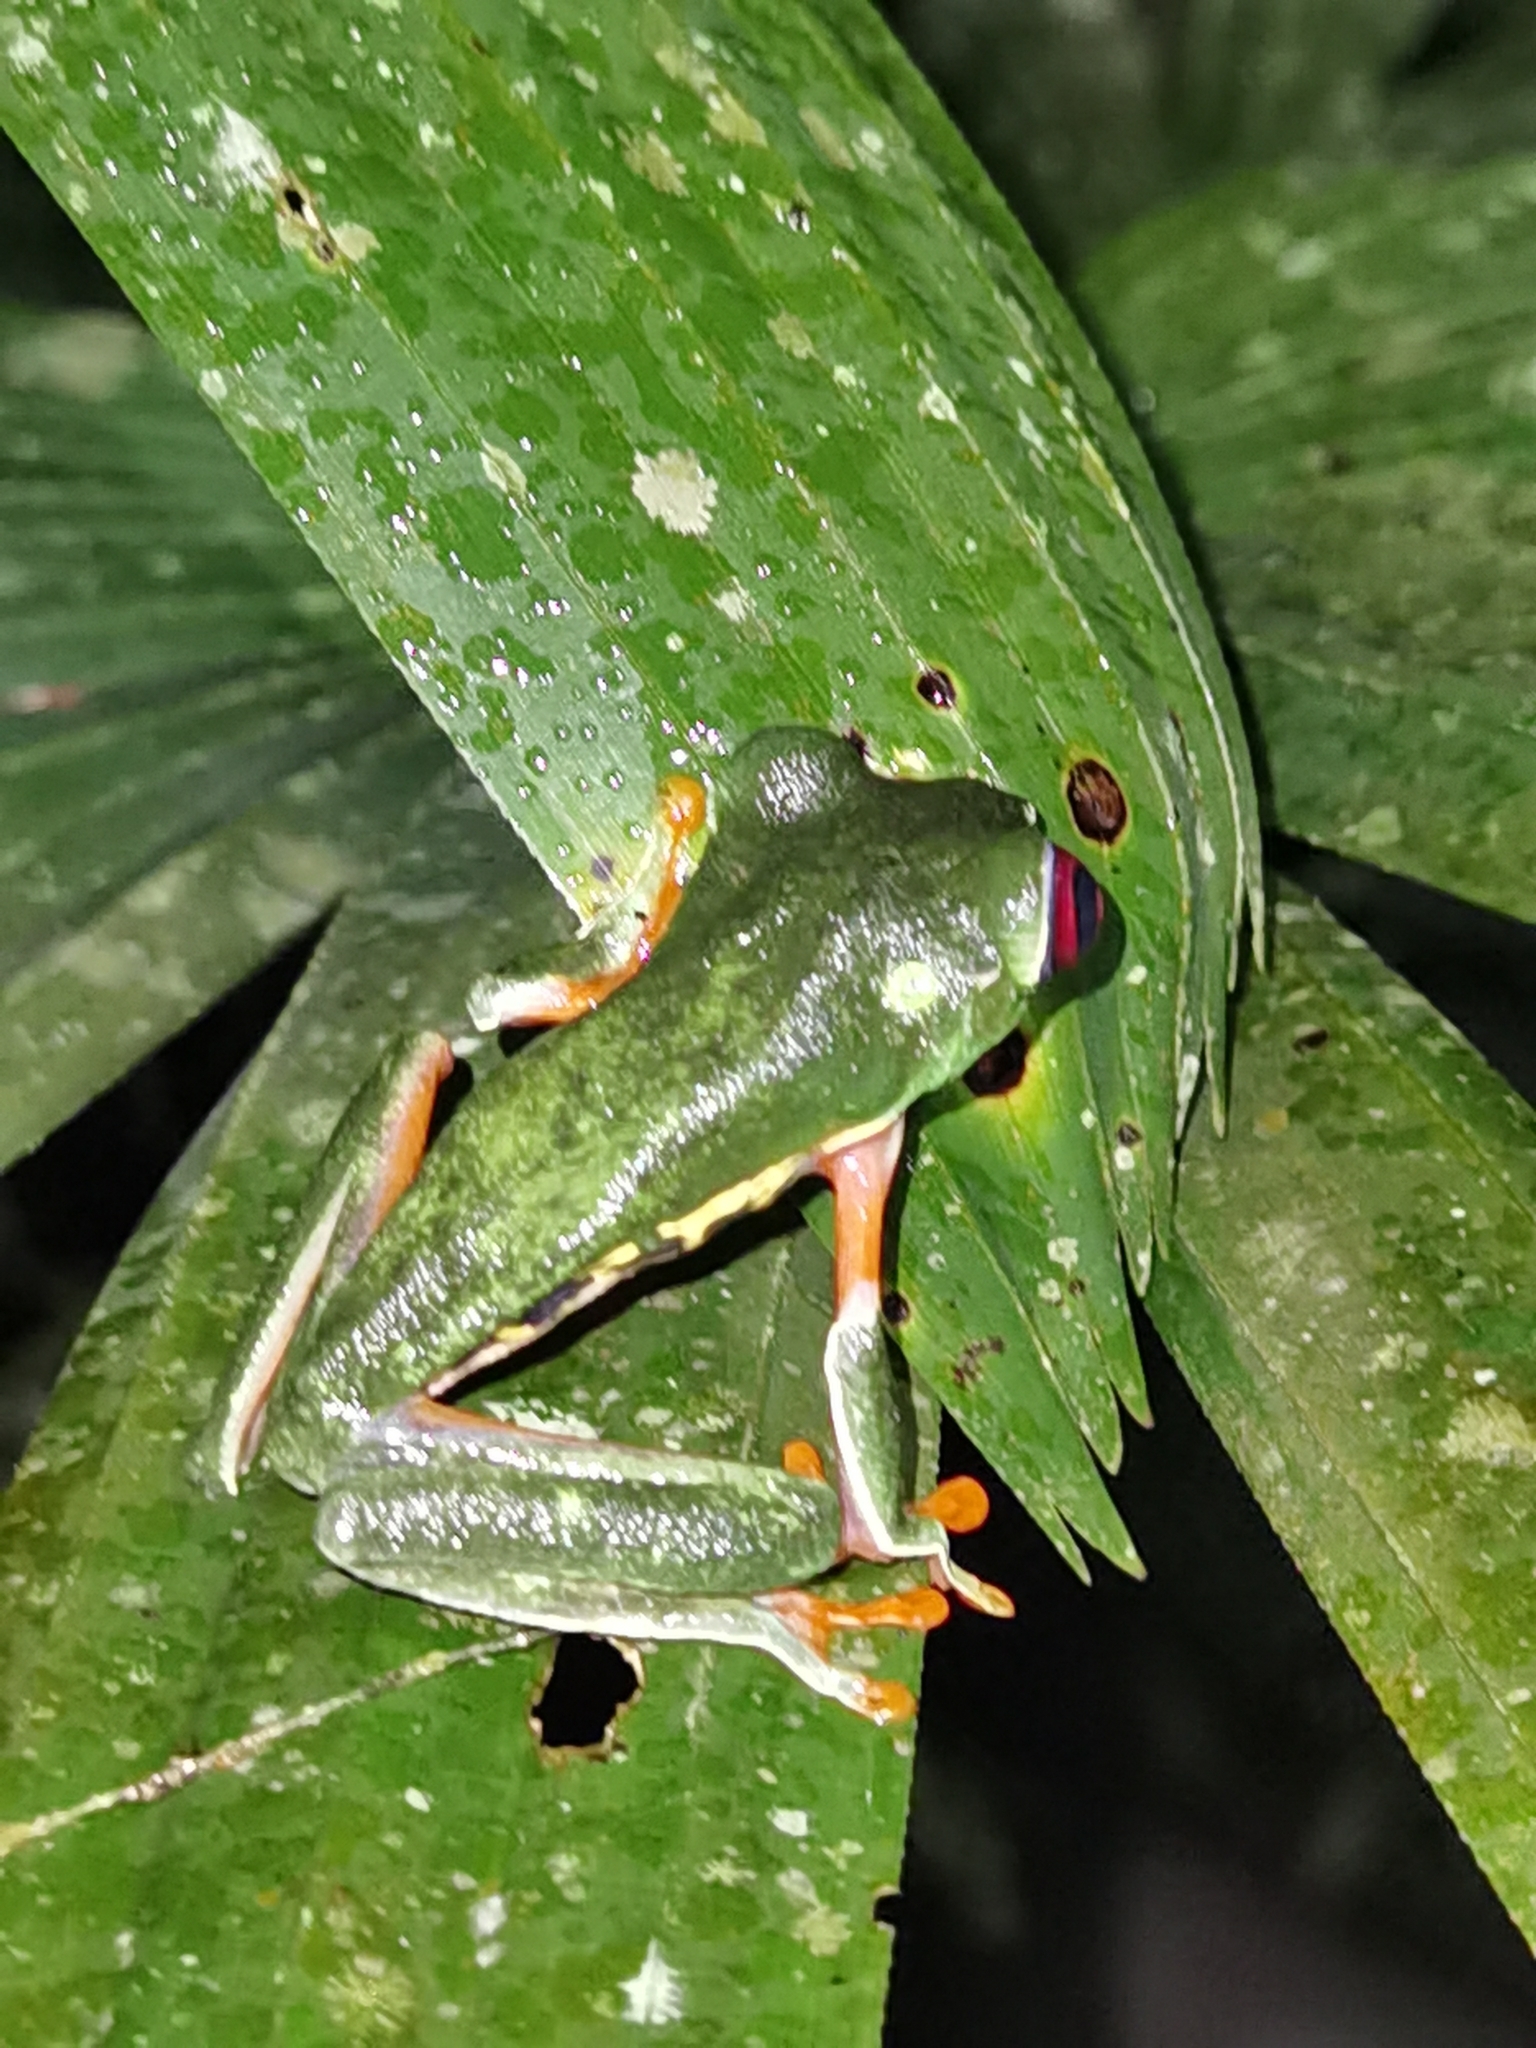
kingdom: Animalia
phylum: Chordata
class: Amphibia
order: Anura
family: Phyllomedusidae
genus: Agalychnis
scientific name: Agalychnis callidryas
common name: Red-eyed treefrog
